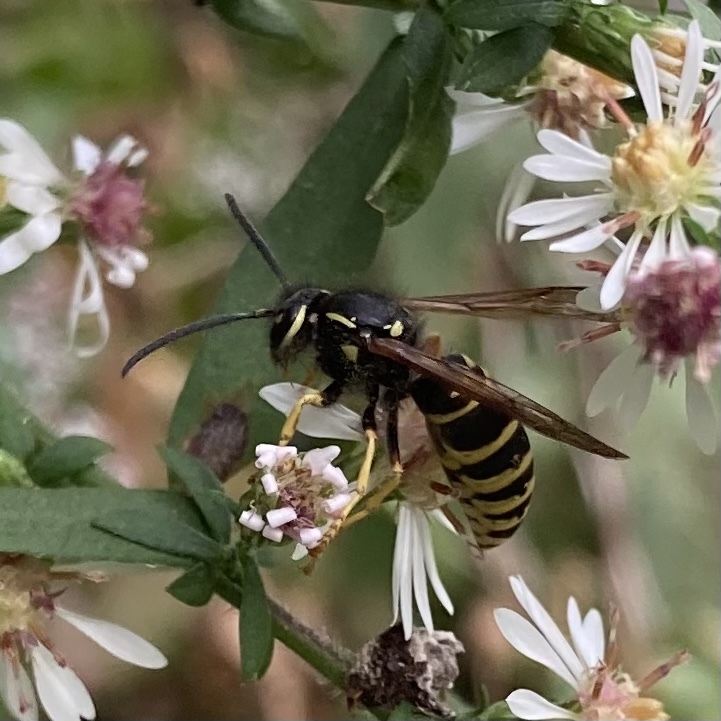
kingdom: Animalia
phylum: Arthropoda
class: Insecta
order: Hymenoptera
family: Vespidae
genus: Vespula
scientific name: Vespula vidua
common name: Widow yellowjacket
